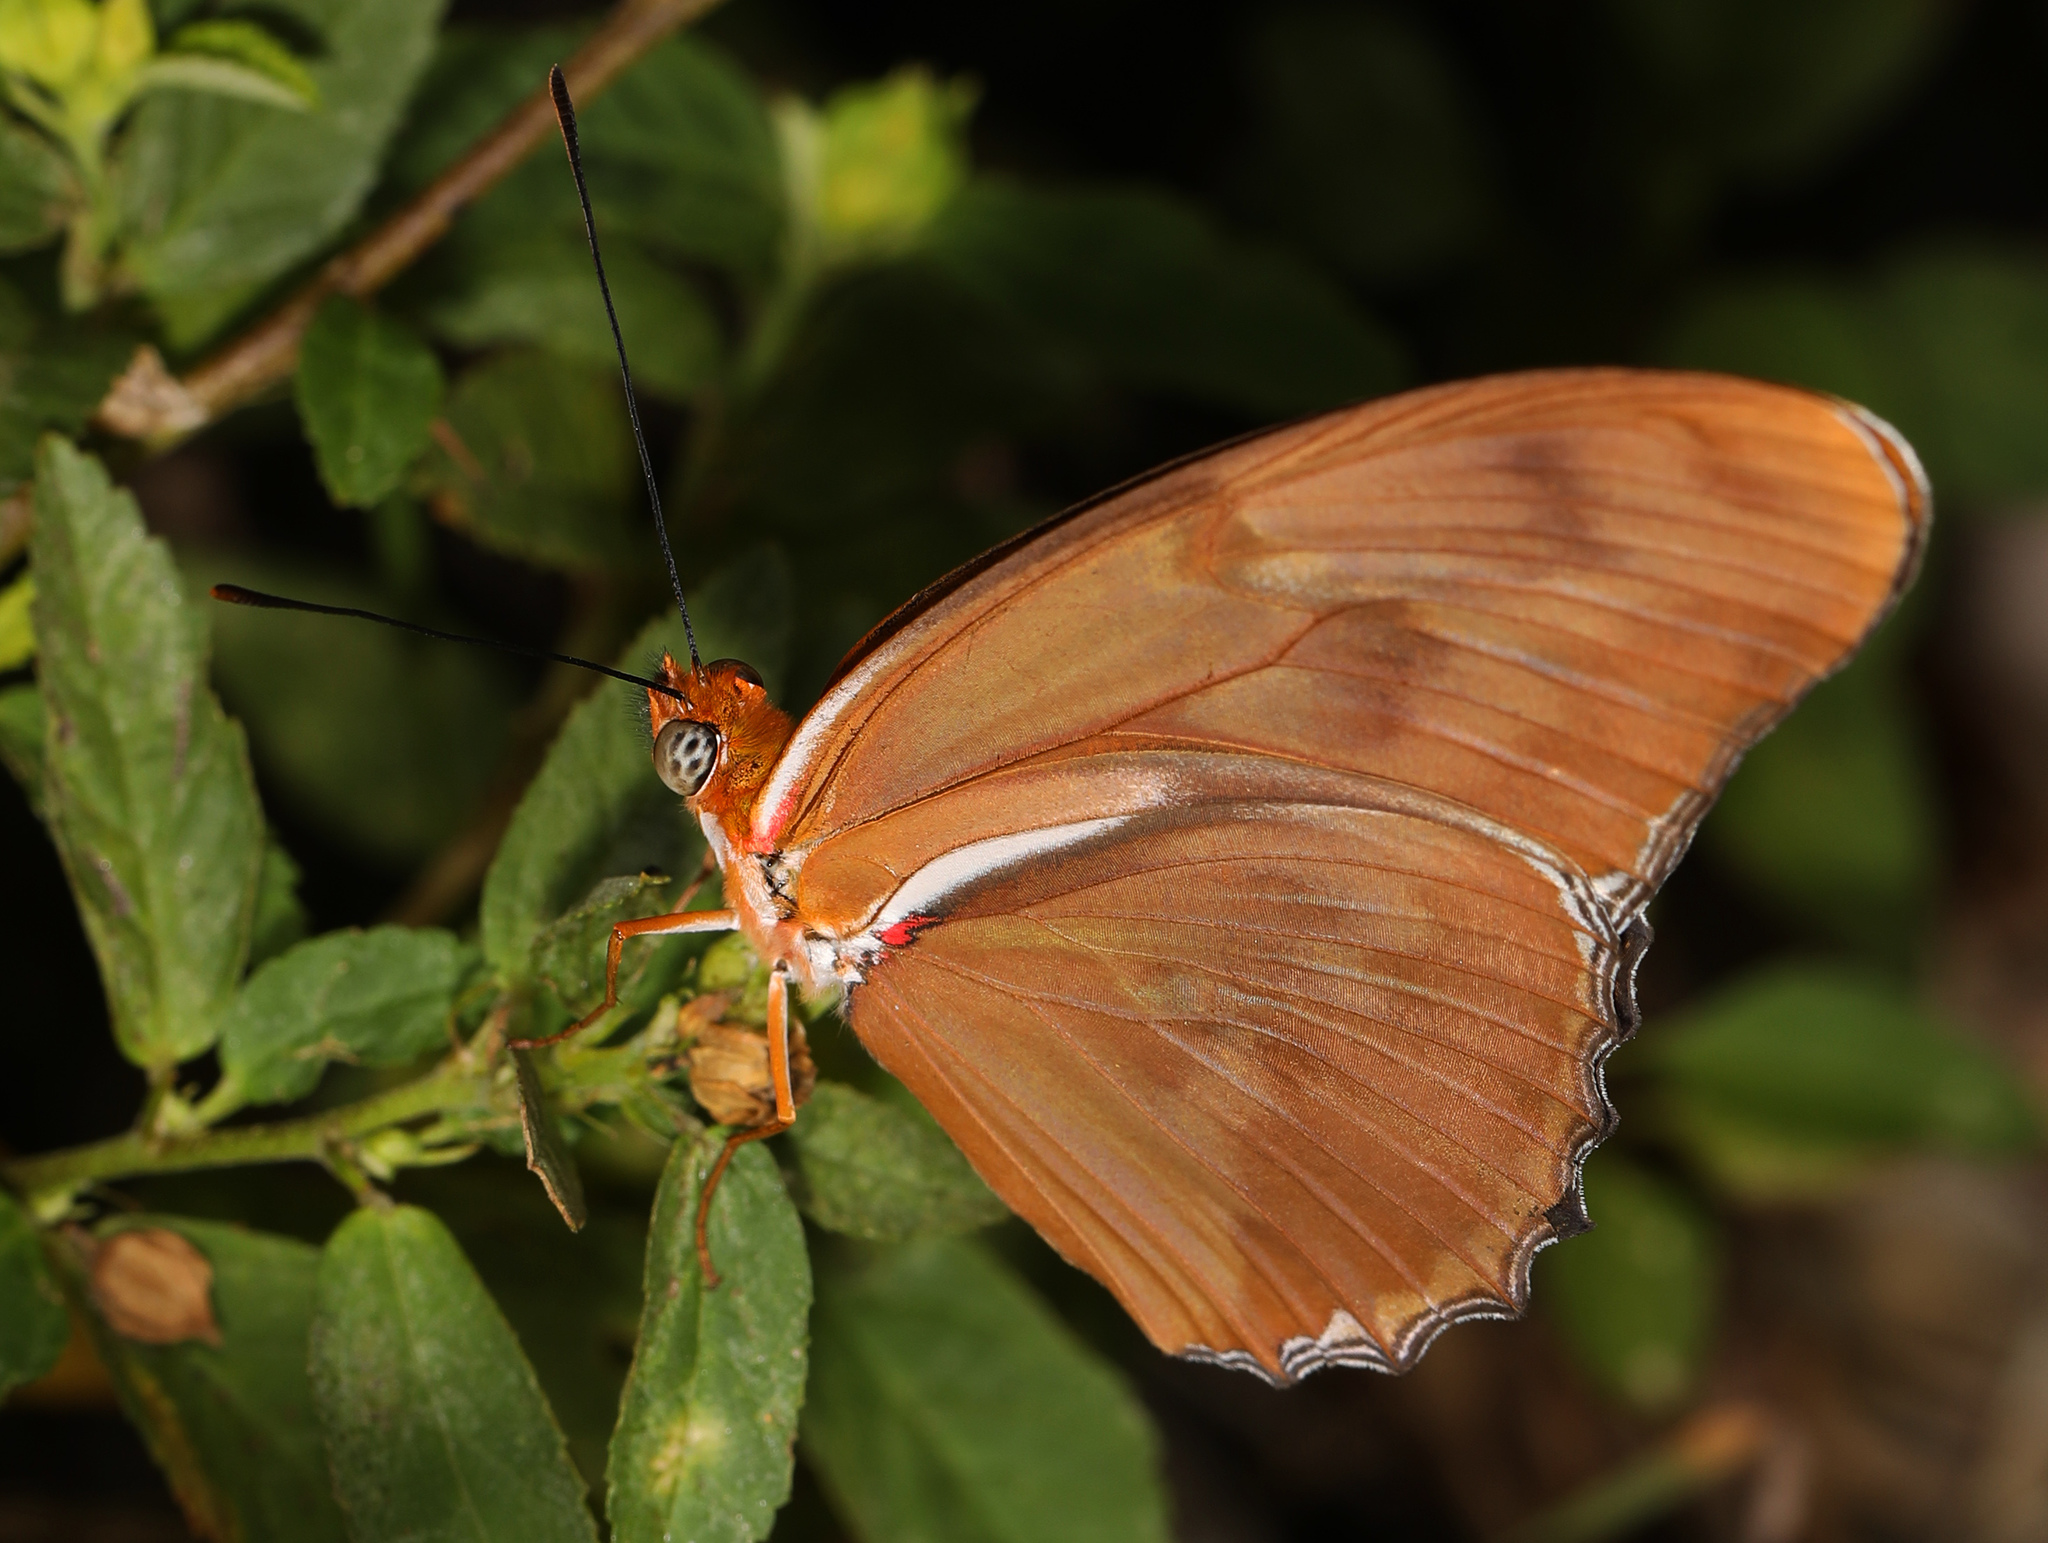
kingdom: Animalia
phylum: Arthropoda
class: Insecta
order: Lepidoptera
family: Nymphalidae
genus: Dryas
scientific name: Dryas iulia
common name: Flambeau
